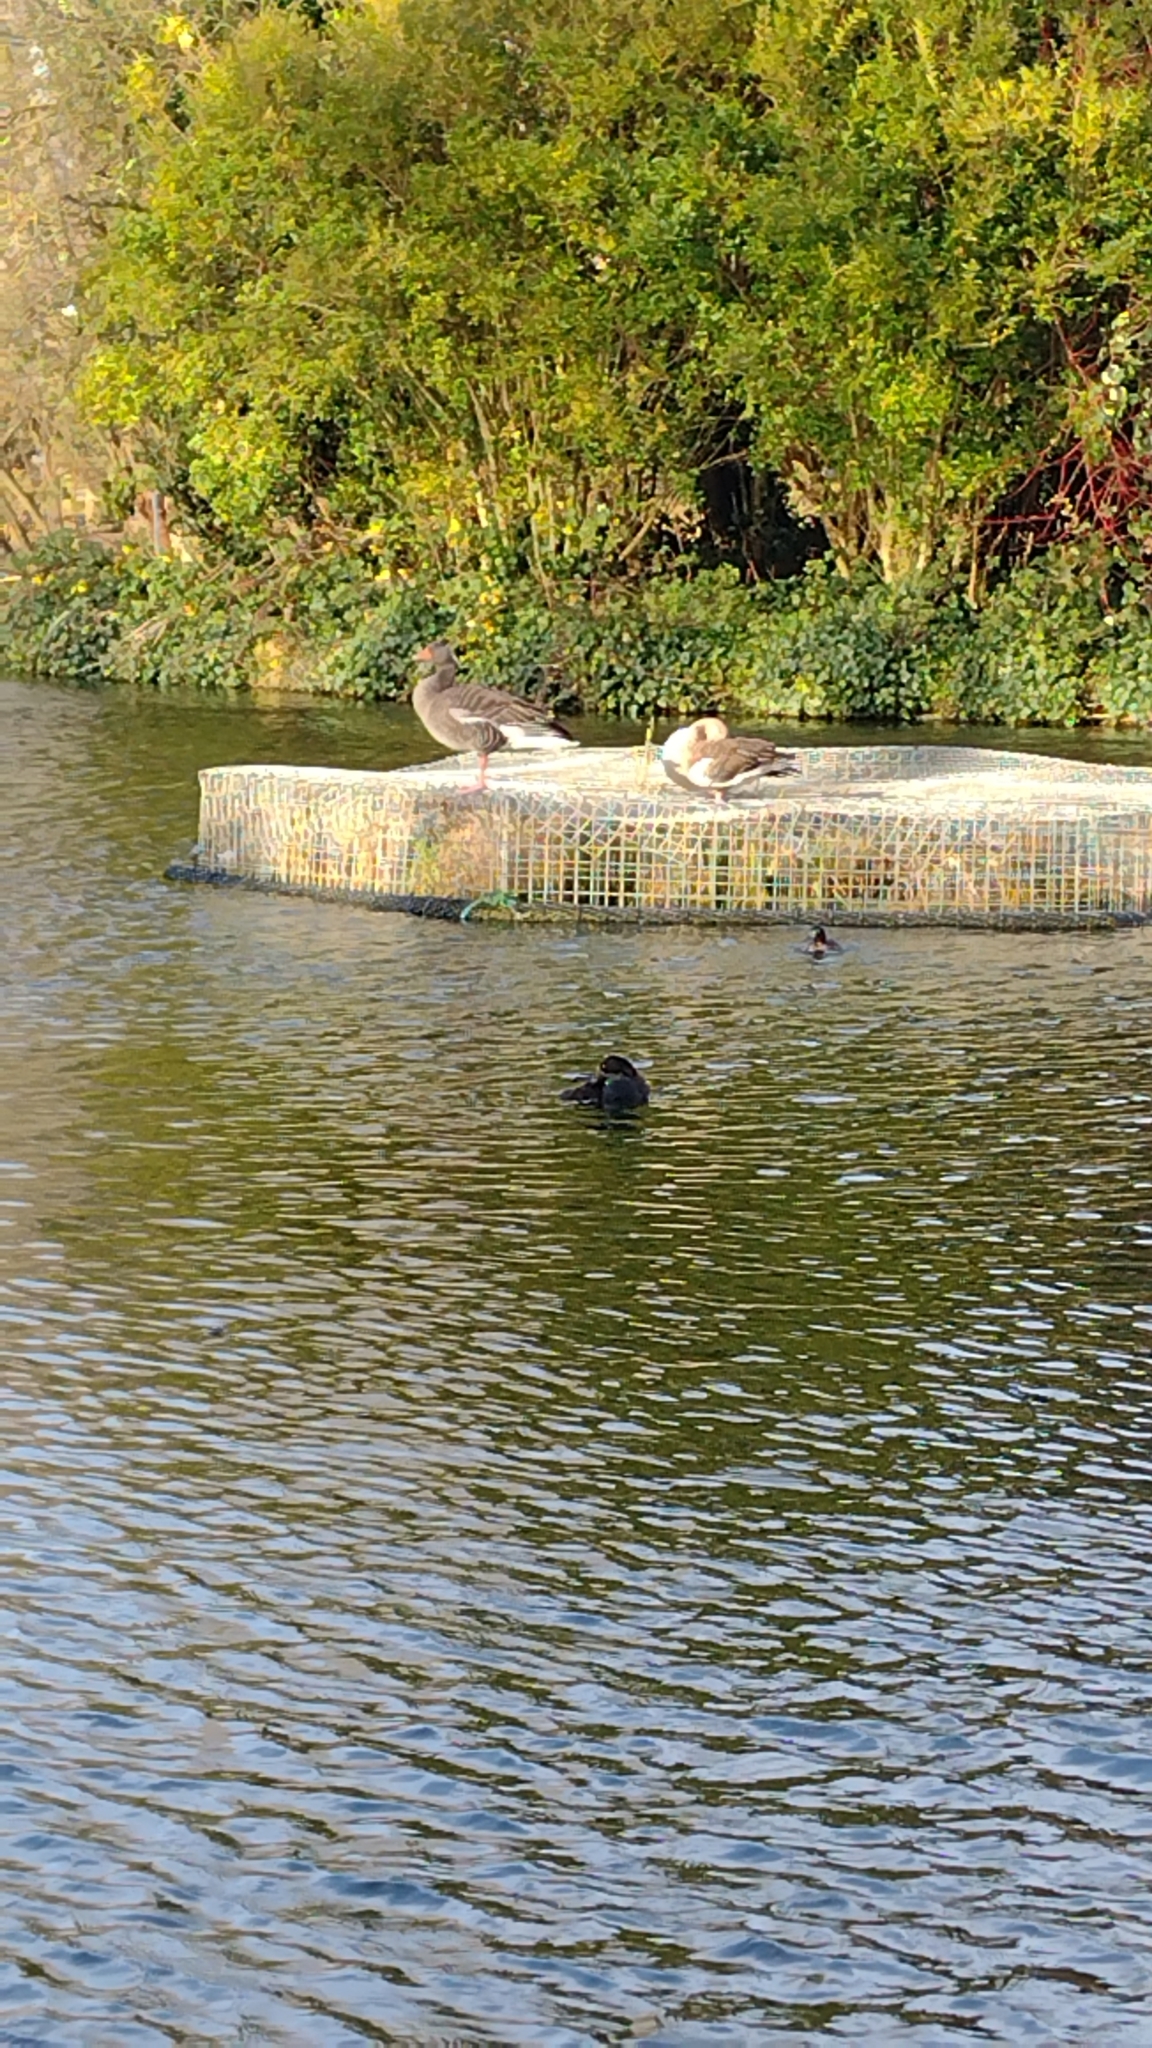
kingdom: Animalia
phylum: Chordata
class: Aves
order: Anseriformes
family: Anatidae
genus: Anser
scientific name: Anser anser
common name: Greylag goose
